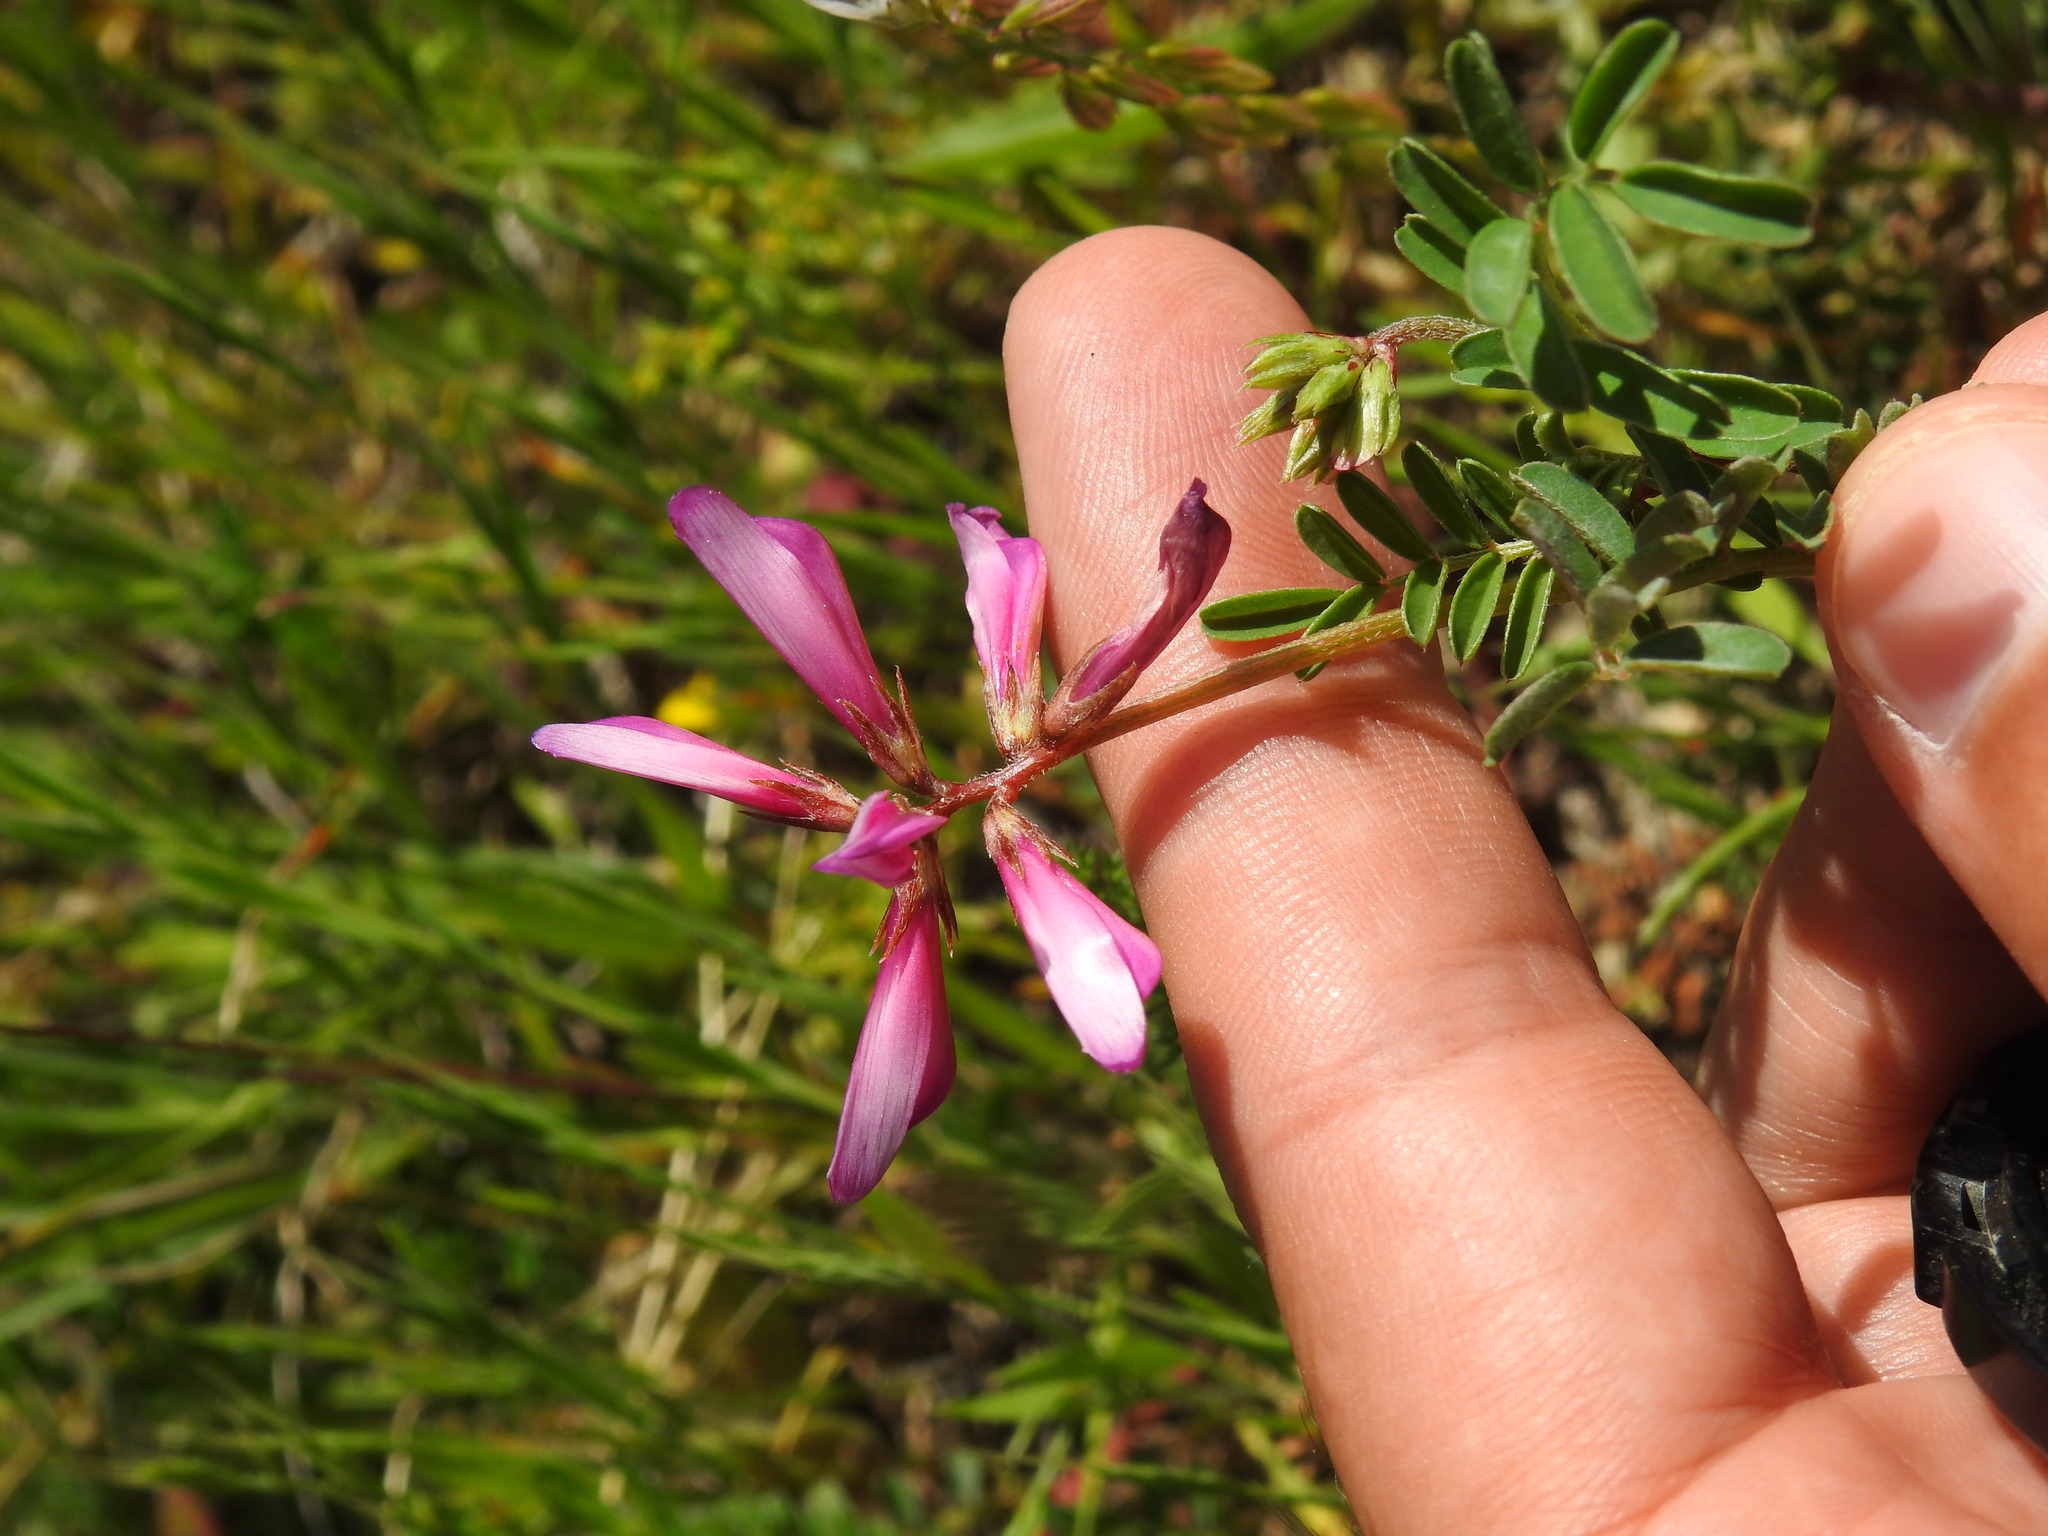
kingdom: Plantae
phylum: Tracheophyta
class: Magnoliopsida
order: Fabales
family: Fabaceae
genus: Sulla
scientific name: Sulla glomerata
